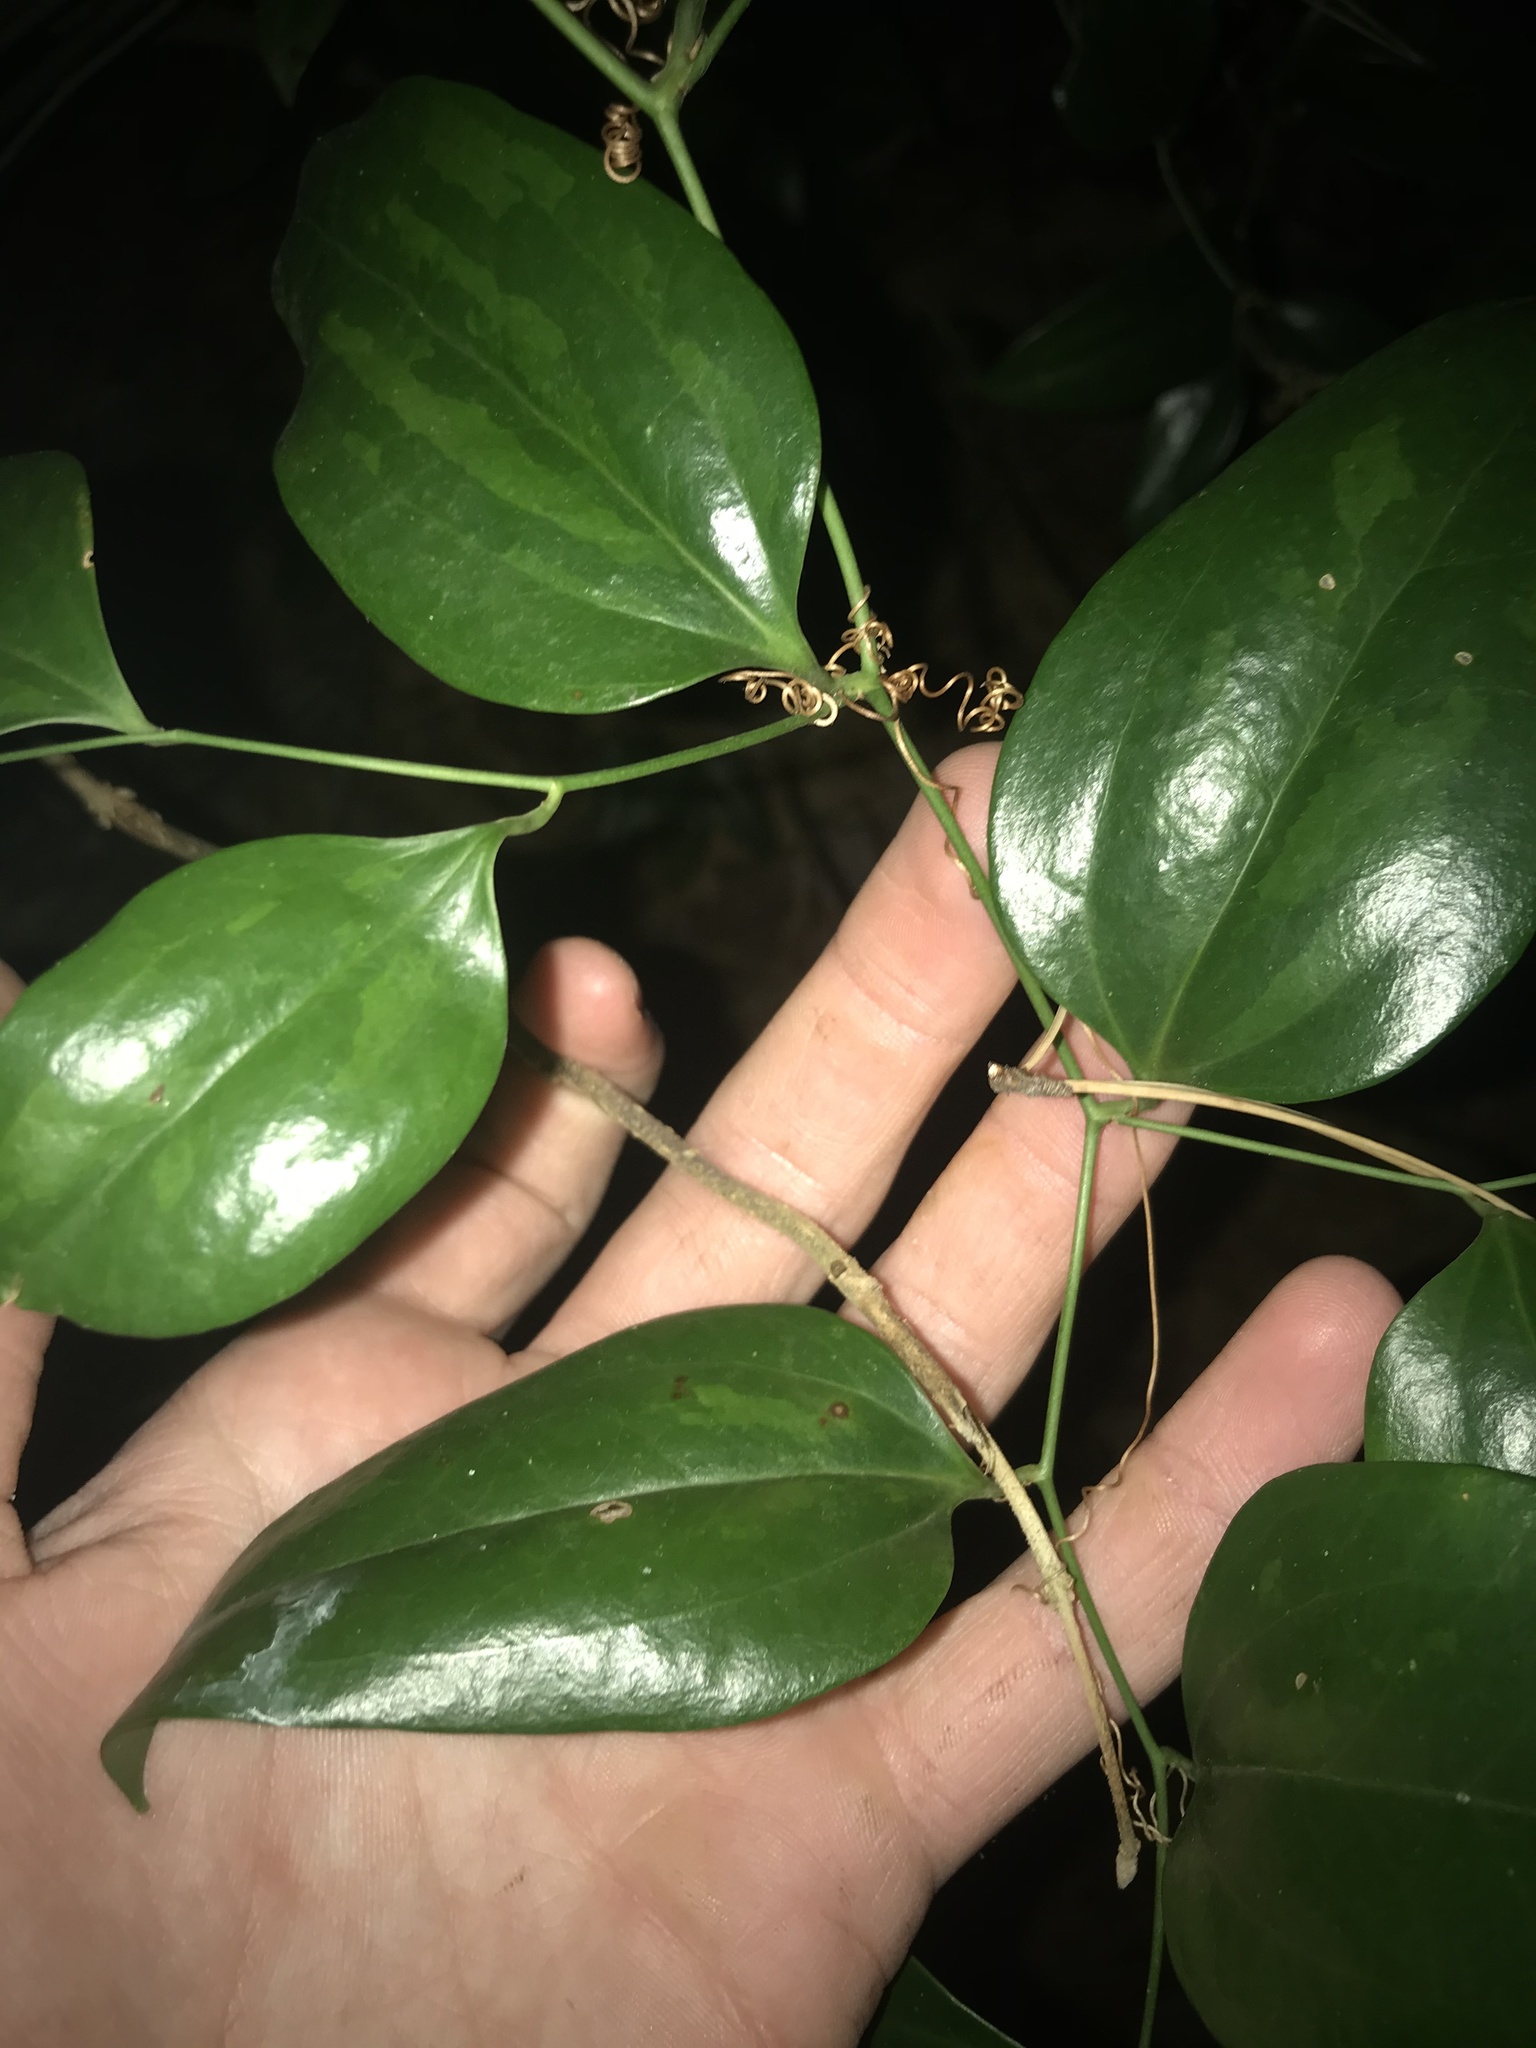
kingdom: Plantae
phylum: Tracheophyta
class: Liliopsida
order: Liliales
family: Smilacaceae
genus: Smilax
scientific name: Smilax maritima
